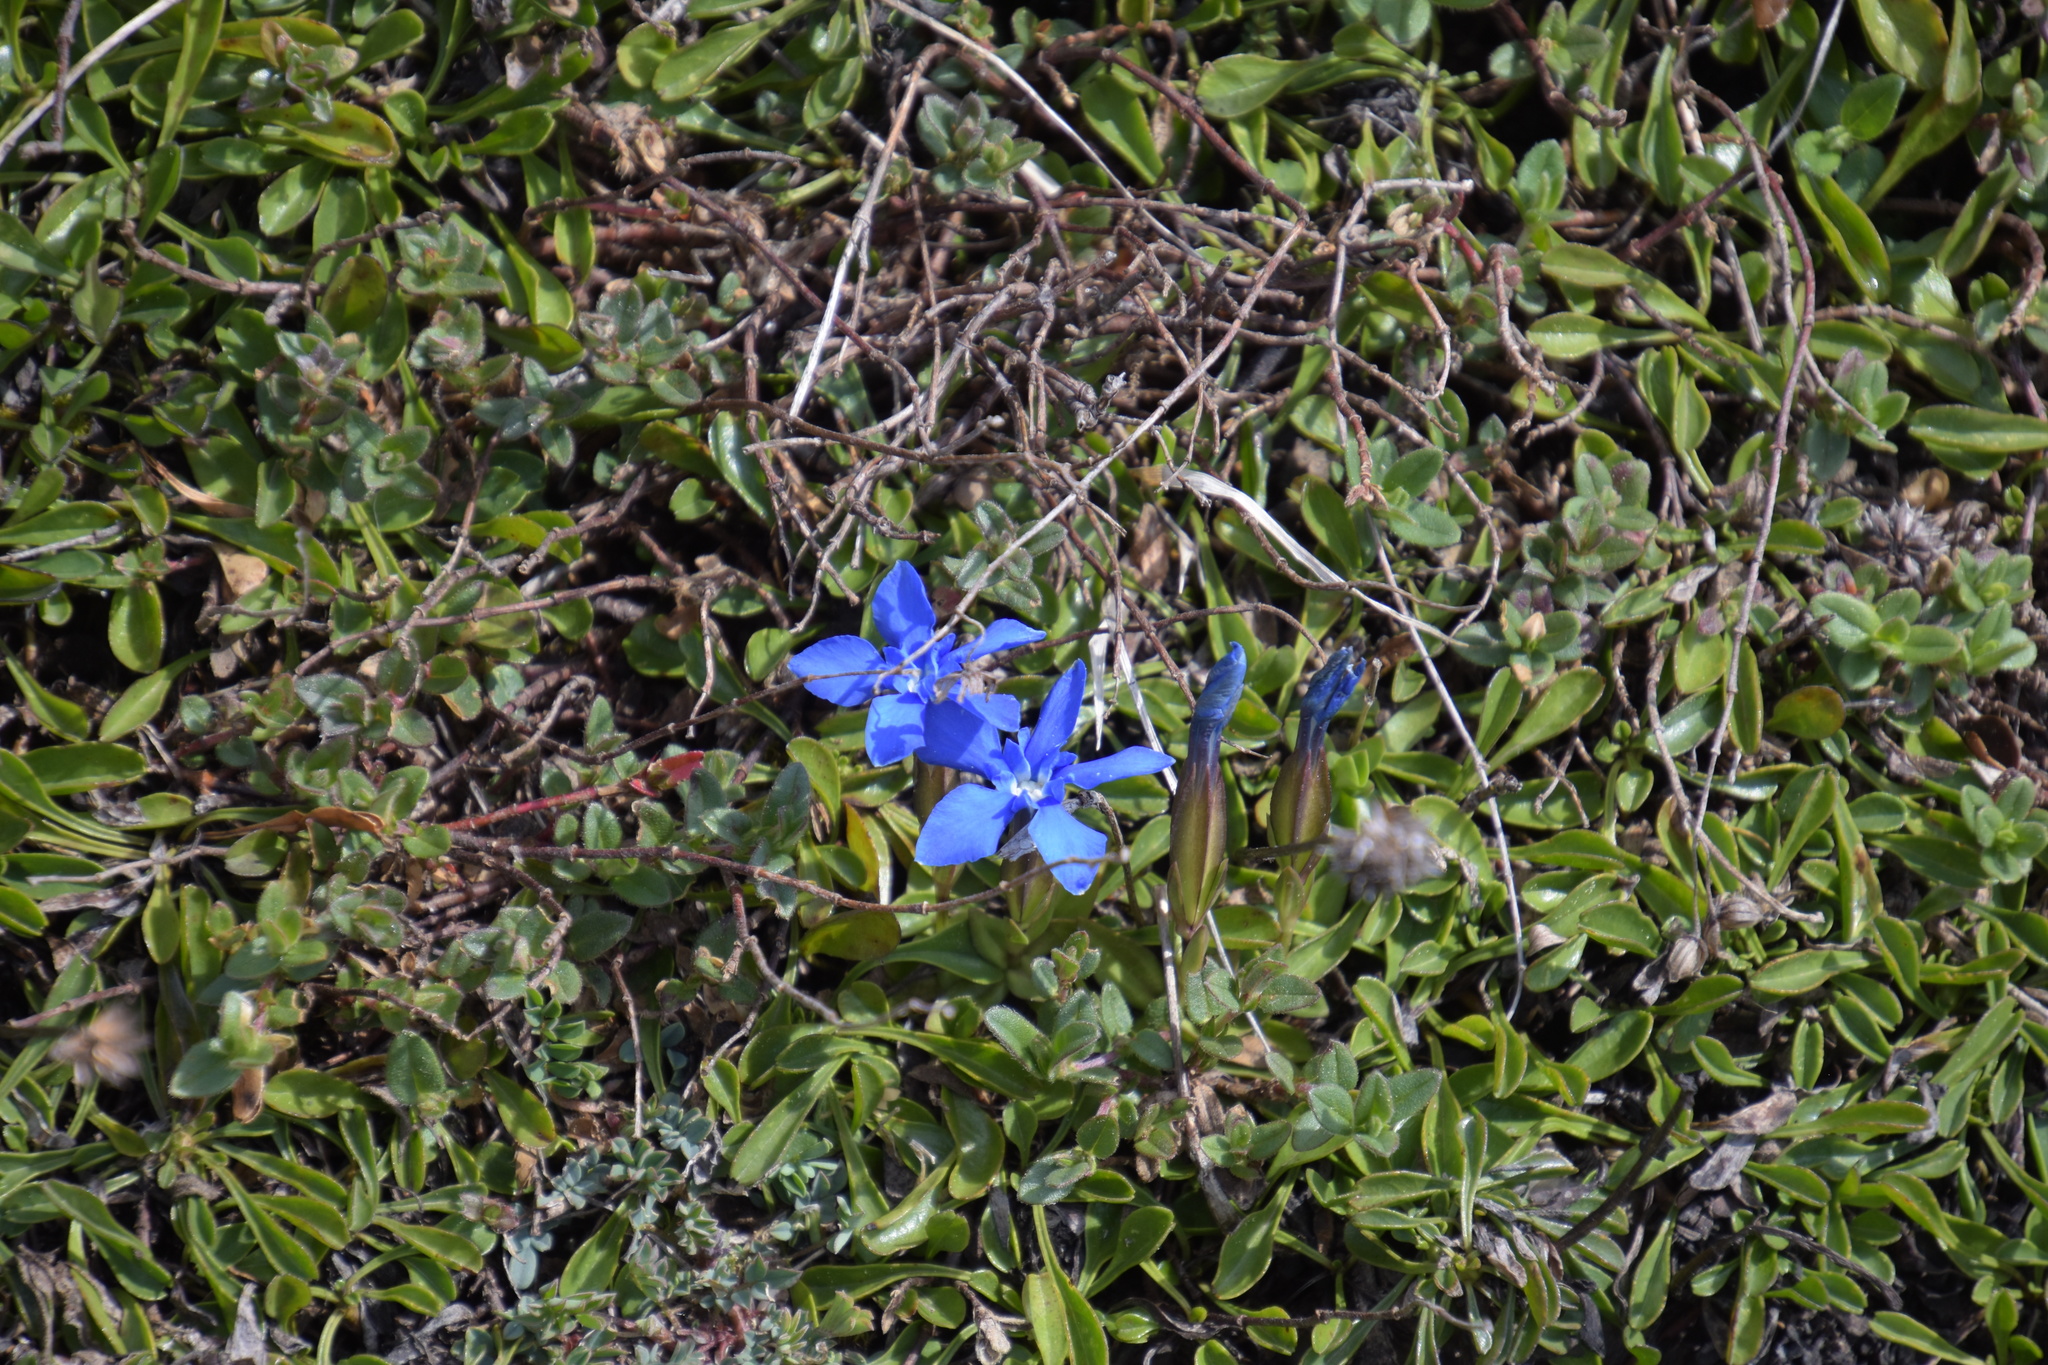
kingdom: Plantae
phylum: Tracheophyta
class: Magnoliopsida
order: Gentianales
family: Gentianaceae
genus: Gentiana
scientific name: Gentiana verna
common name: Spring gentian
